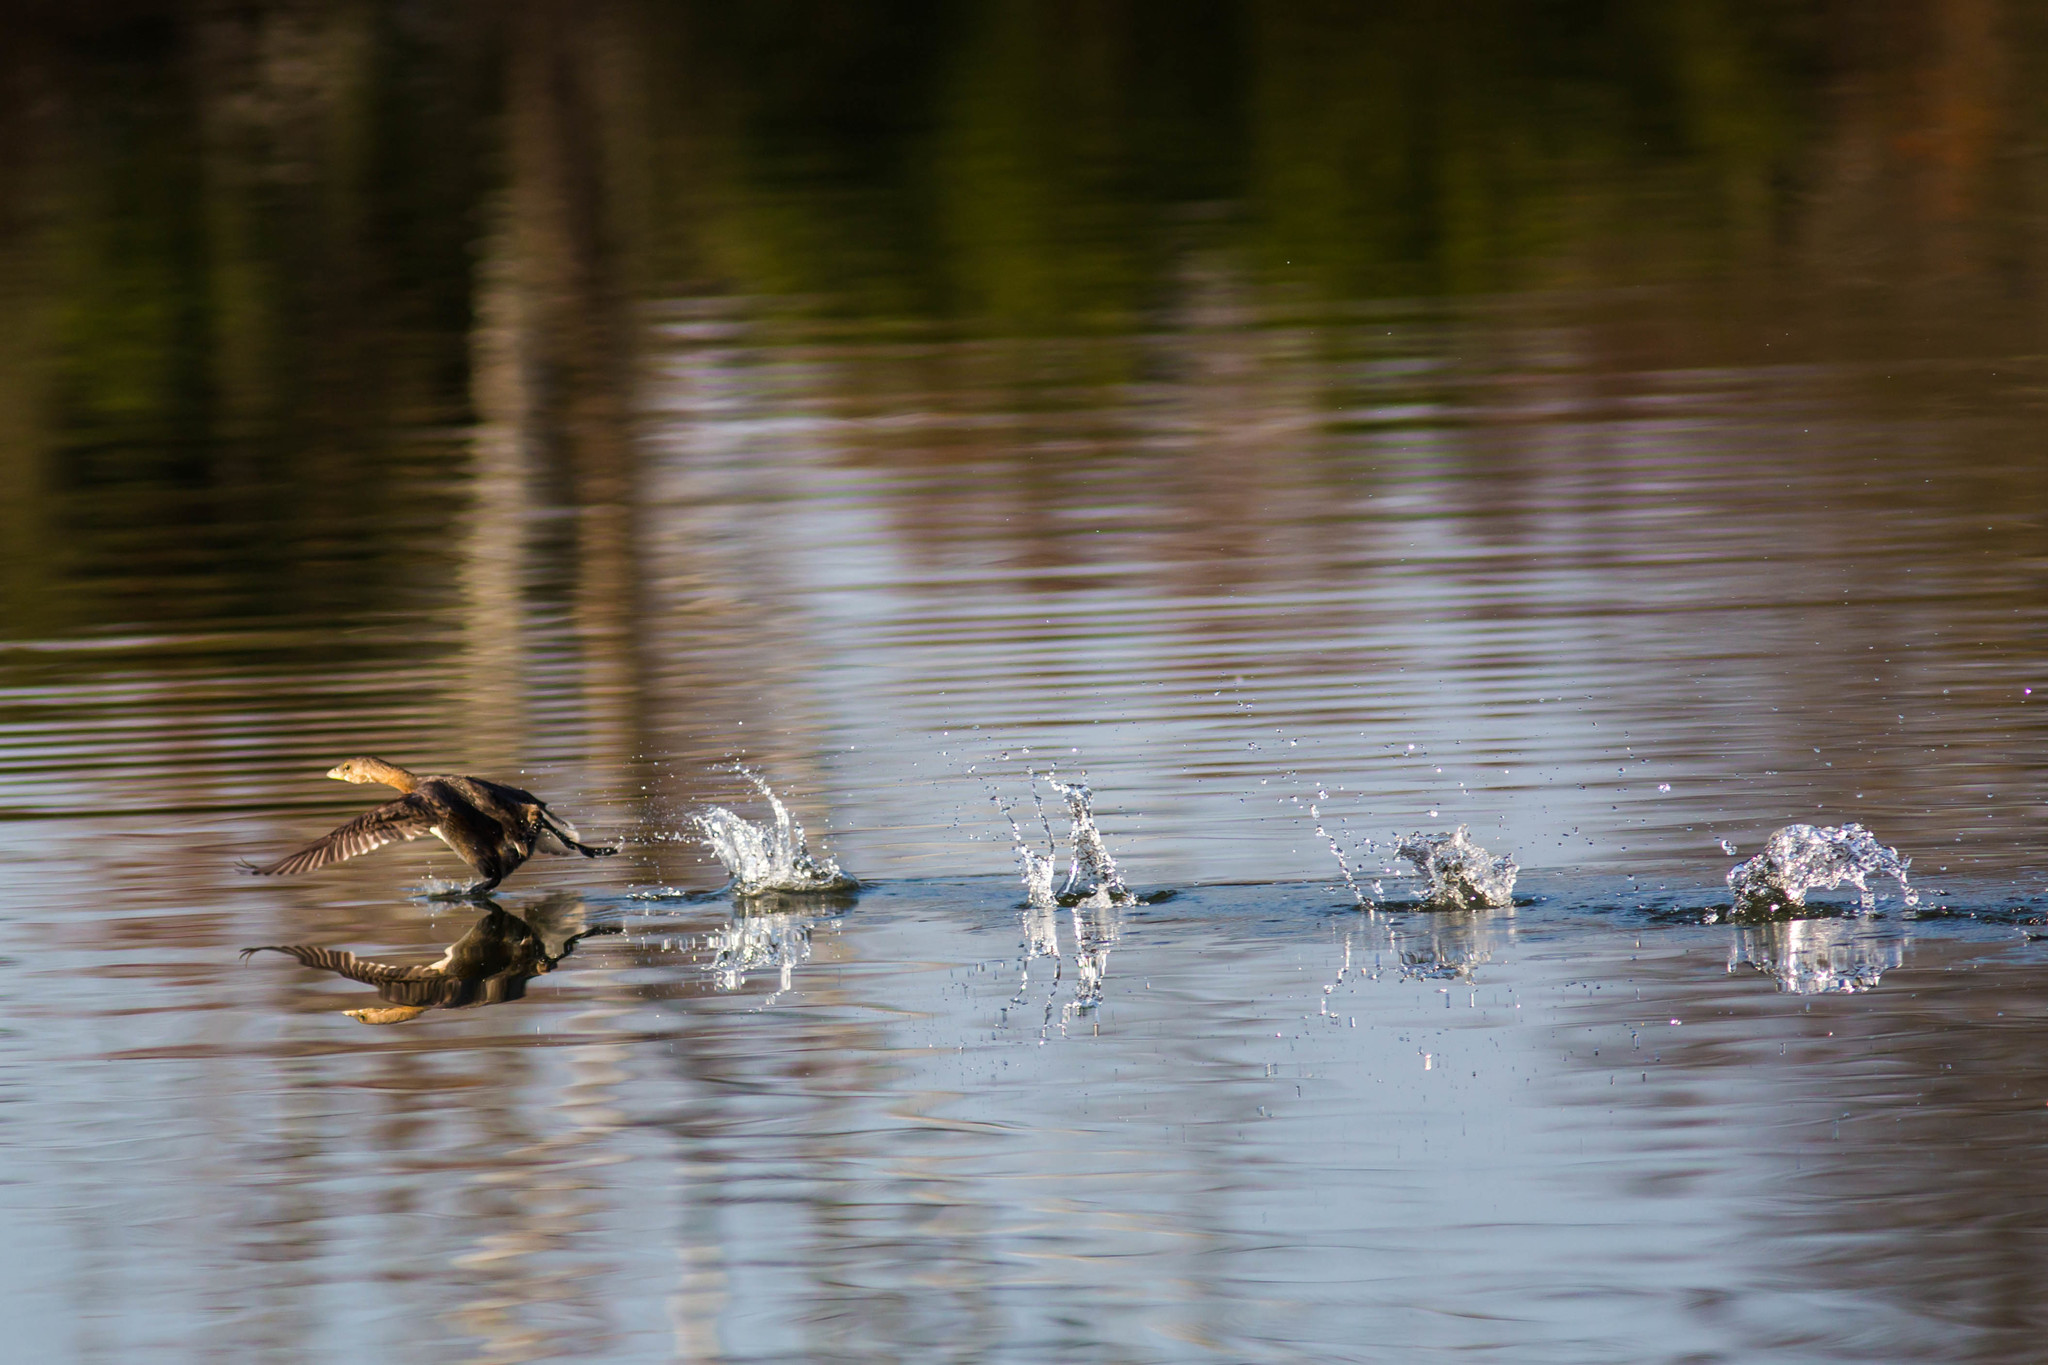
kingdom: Animalia
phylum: Chordata
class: Aves
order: Podicipediformes
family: Podicipedidae
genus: Podilymbus
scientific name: Podilymbus podiceps
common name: Pied-billed grebe
